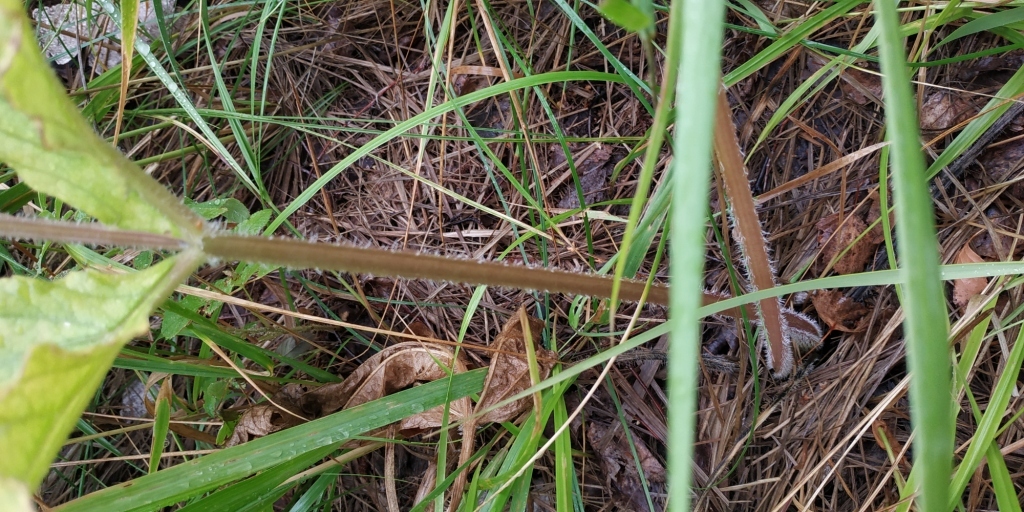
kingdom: Plantae
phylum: Tracheophyta
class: Magnoliopsida
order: Apiales
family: Apiaceae
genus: Heracleum
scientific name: Heracleum sphondylium
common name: Hogweed
